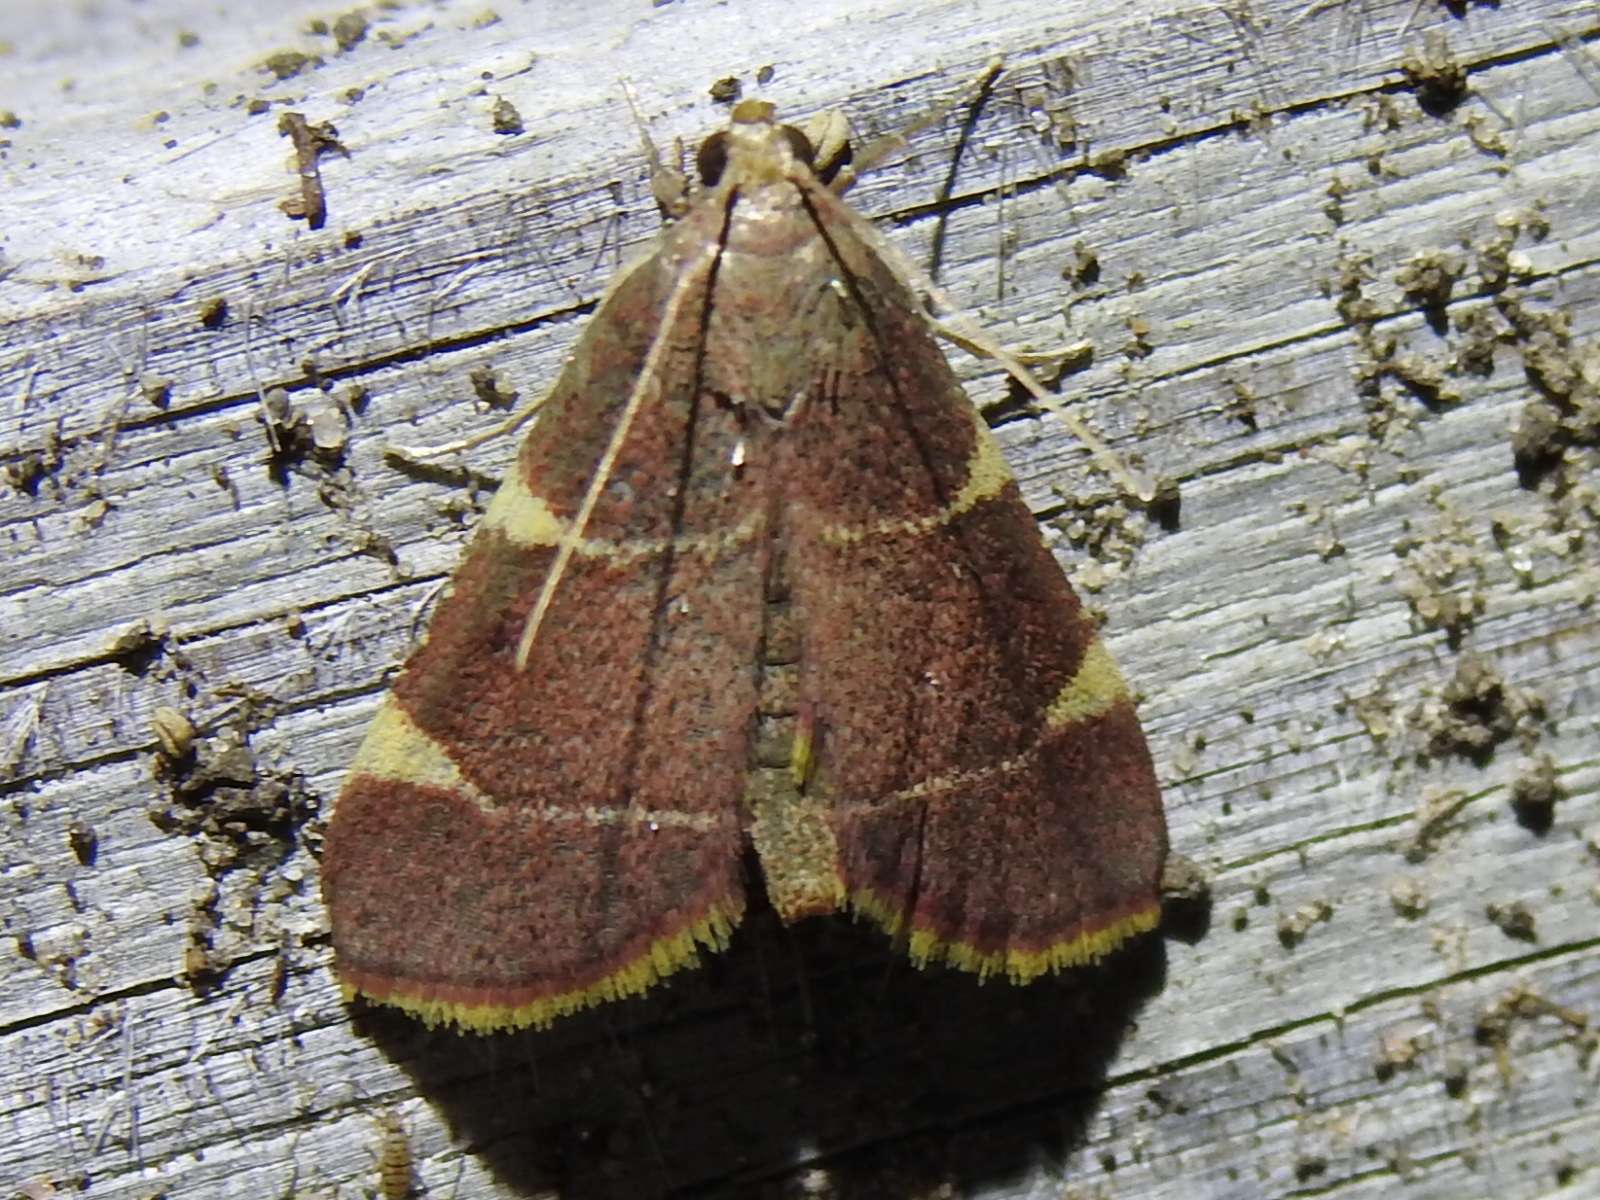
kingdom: Animalia
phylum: Arthropoda
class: Insecta
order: Lepidoptera
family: Pyralidae
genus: Hypsopygia
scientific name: Hypsopygia olinalis
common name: Yellow-fringed dolichomia moth
